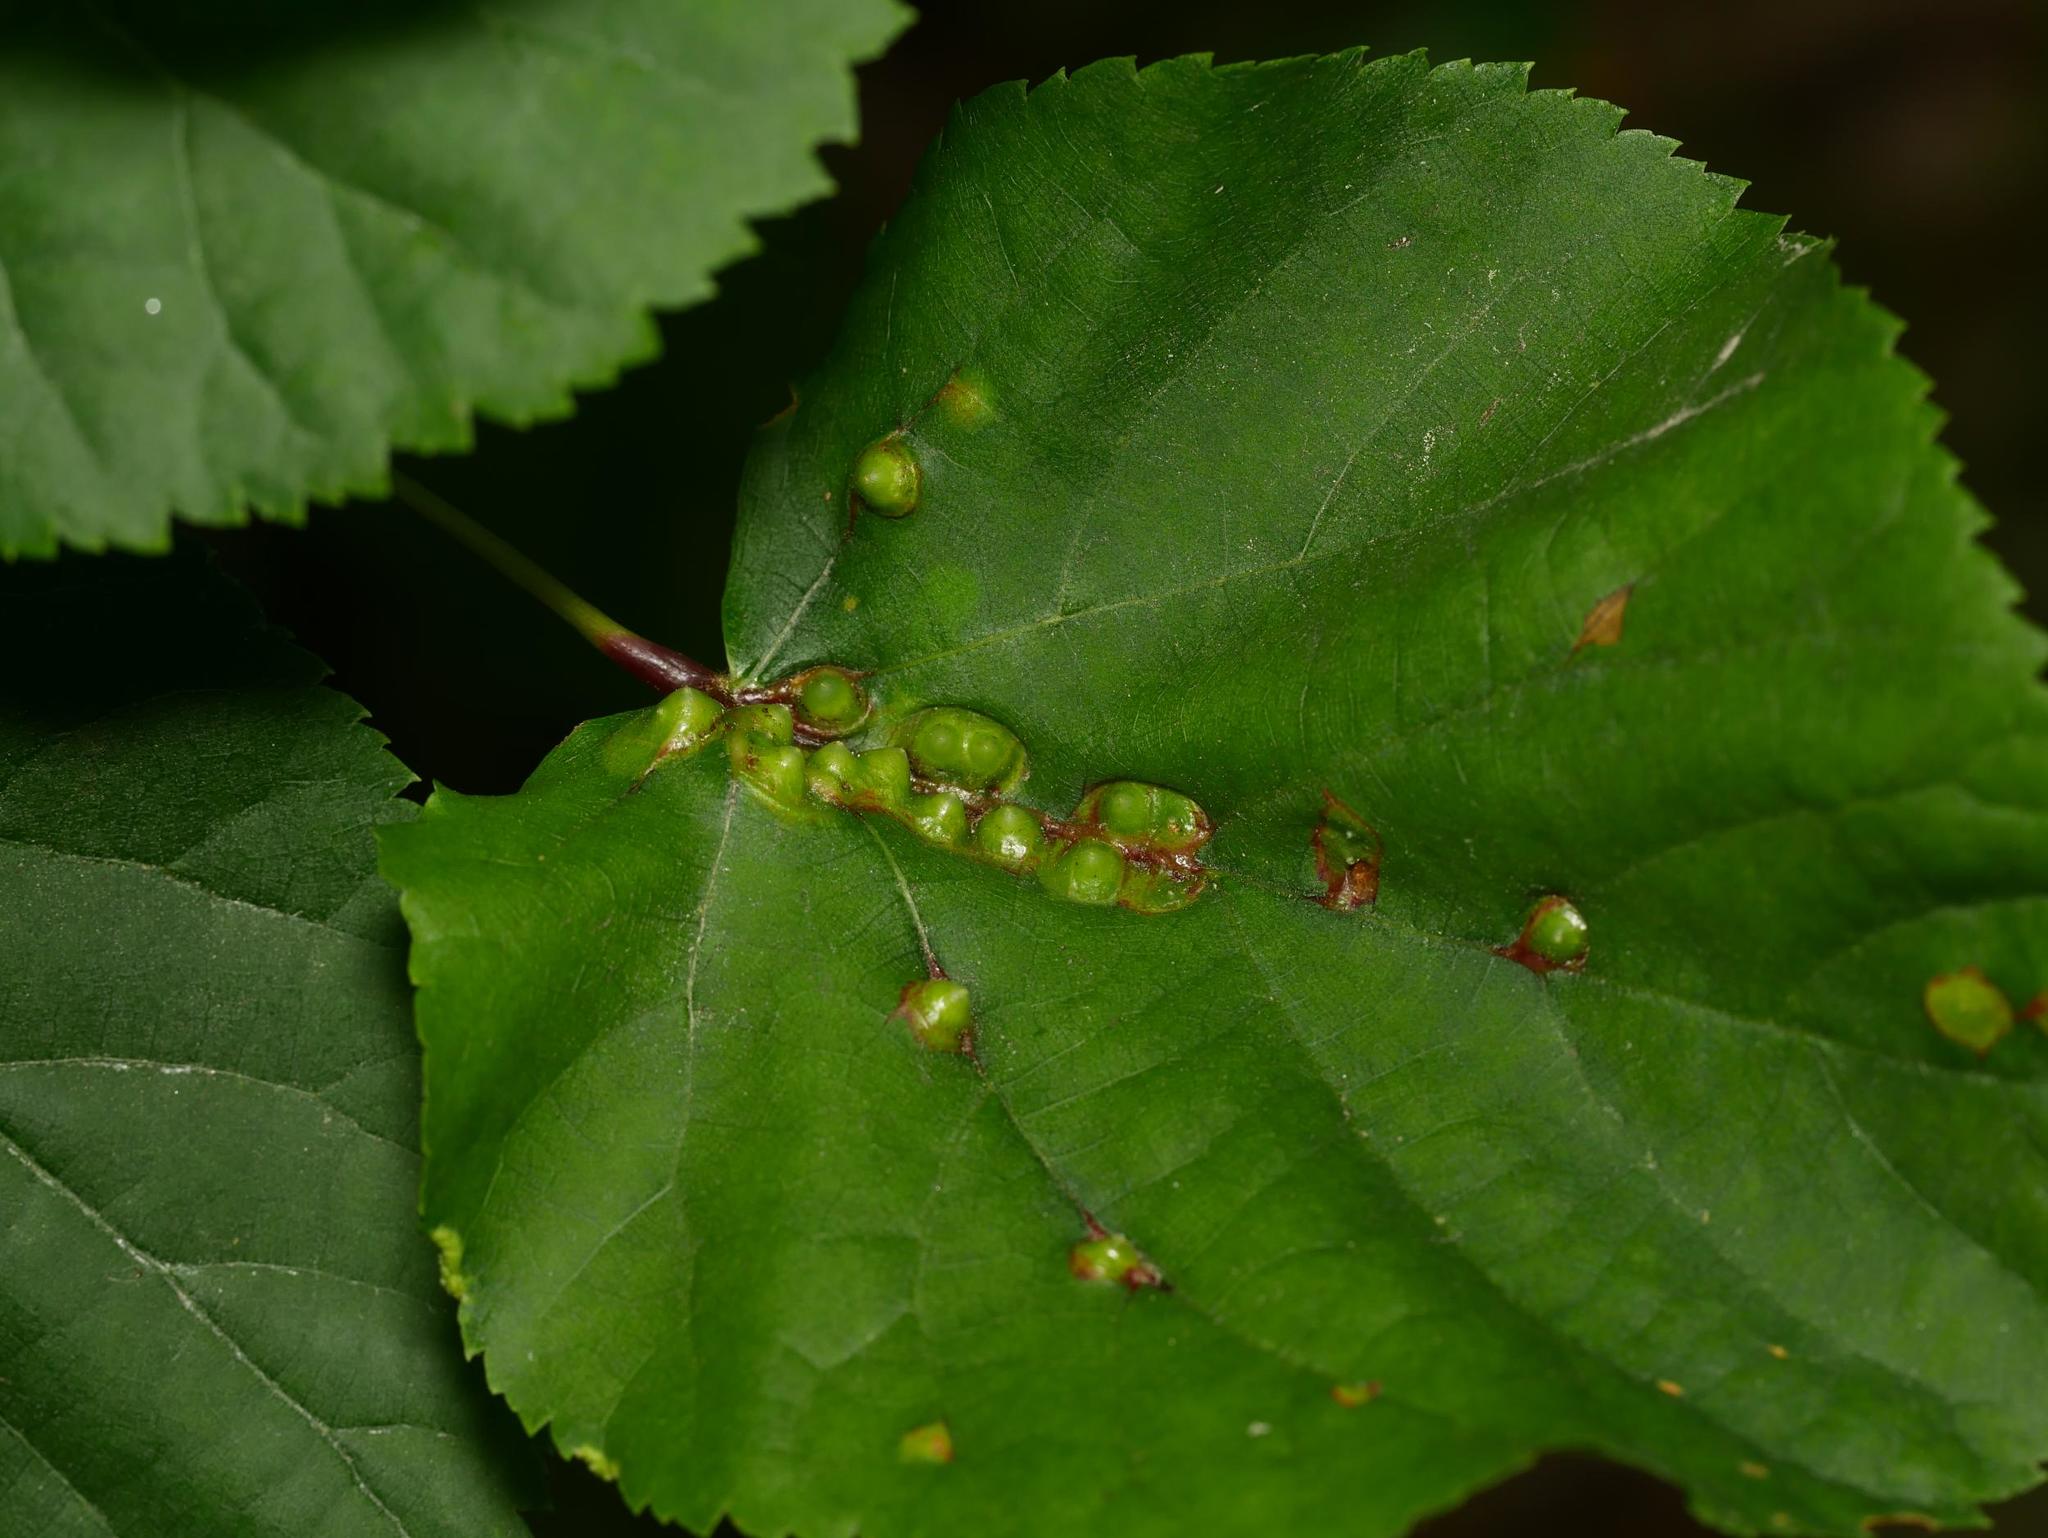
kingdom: Animalia
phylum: Arthropoda
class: Insecta
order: Diptera
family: Cecidomyiidae
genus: Didymomyia
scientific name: Didymomyia tiliacea
